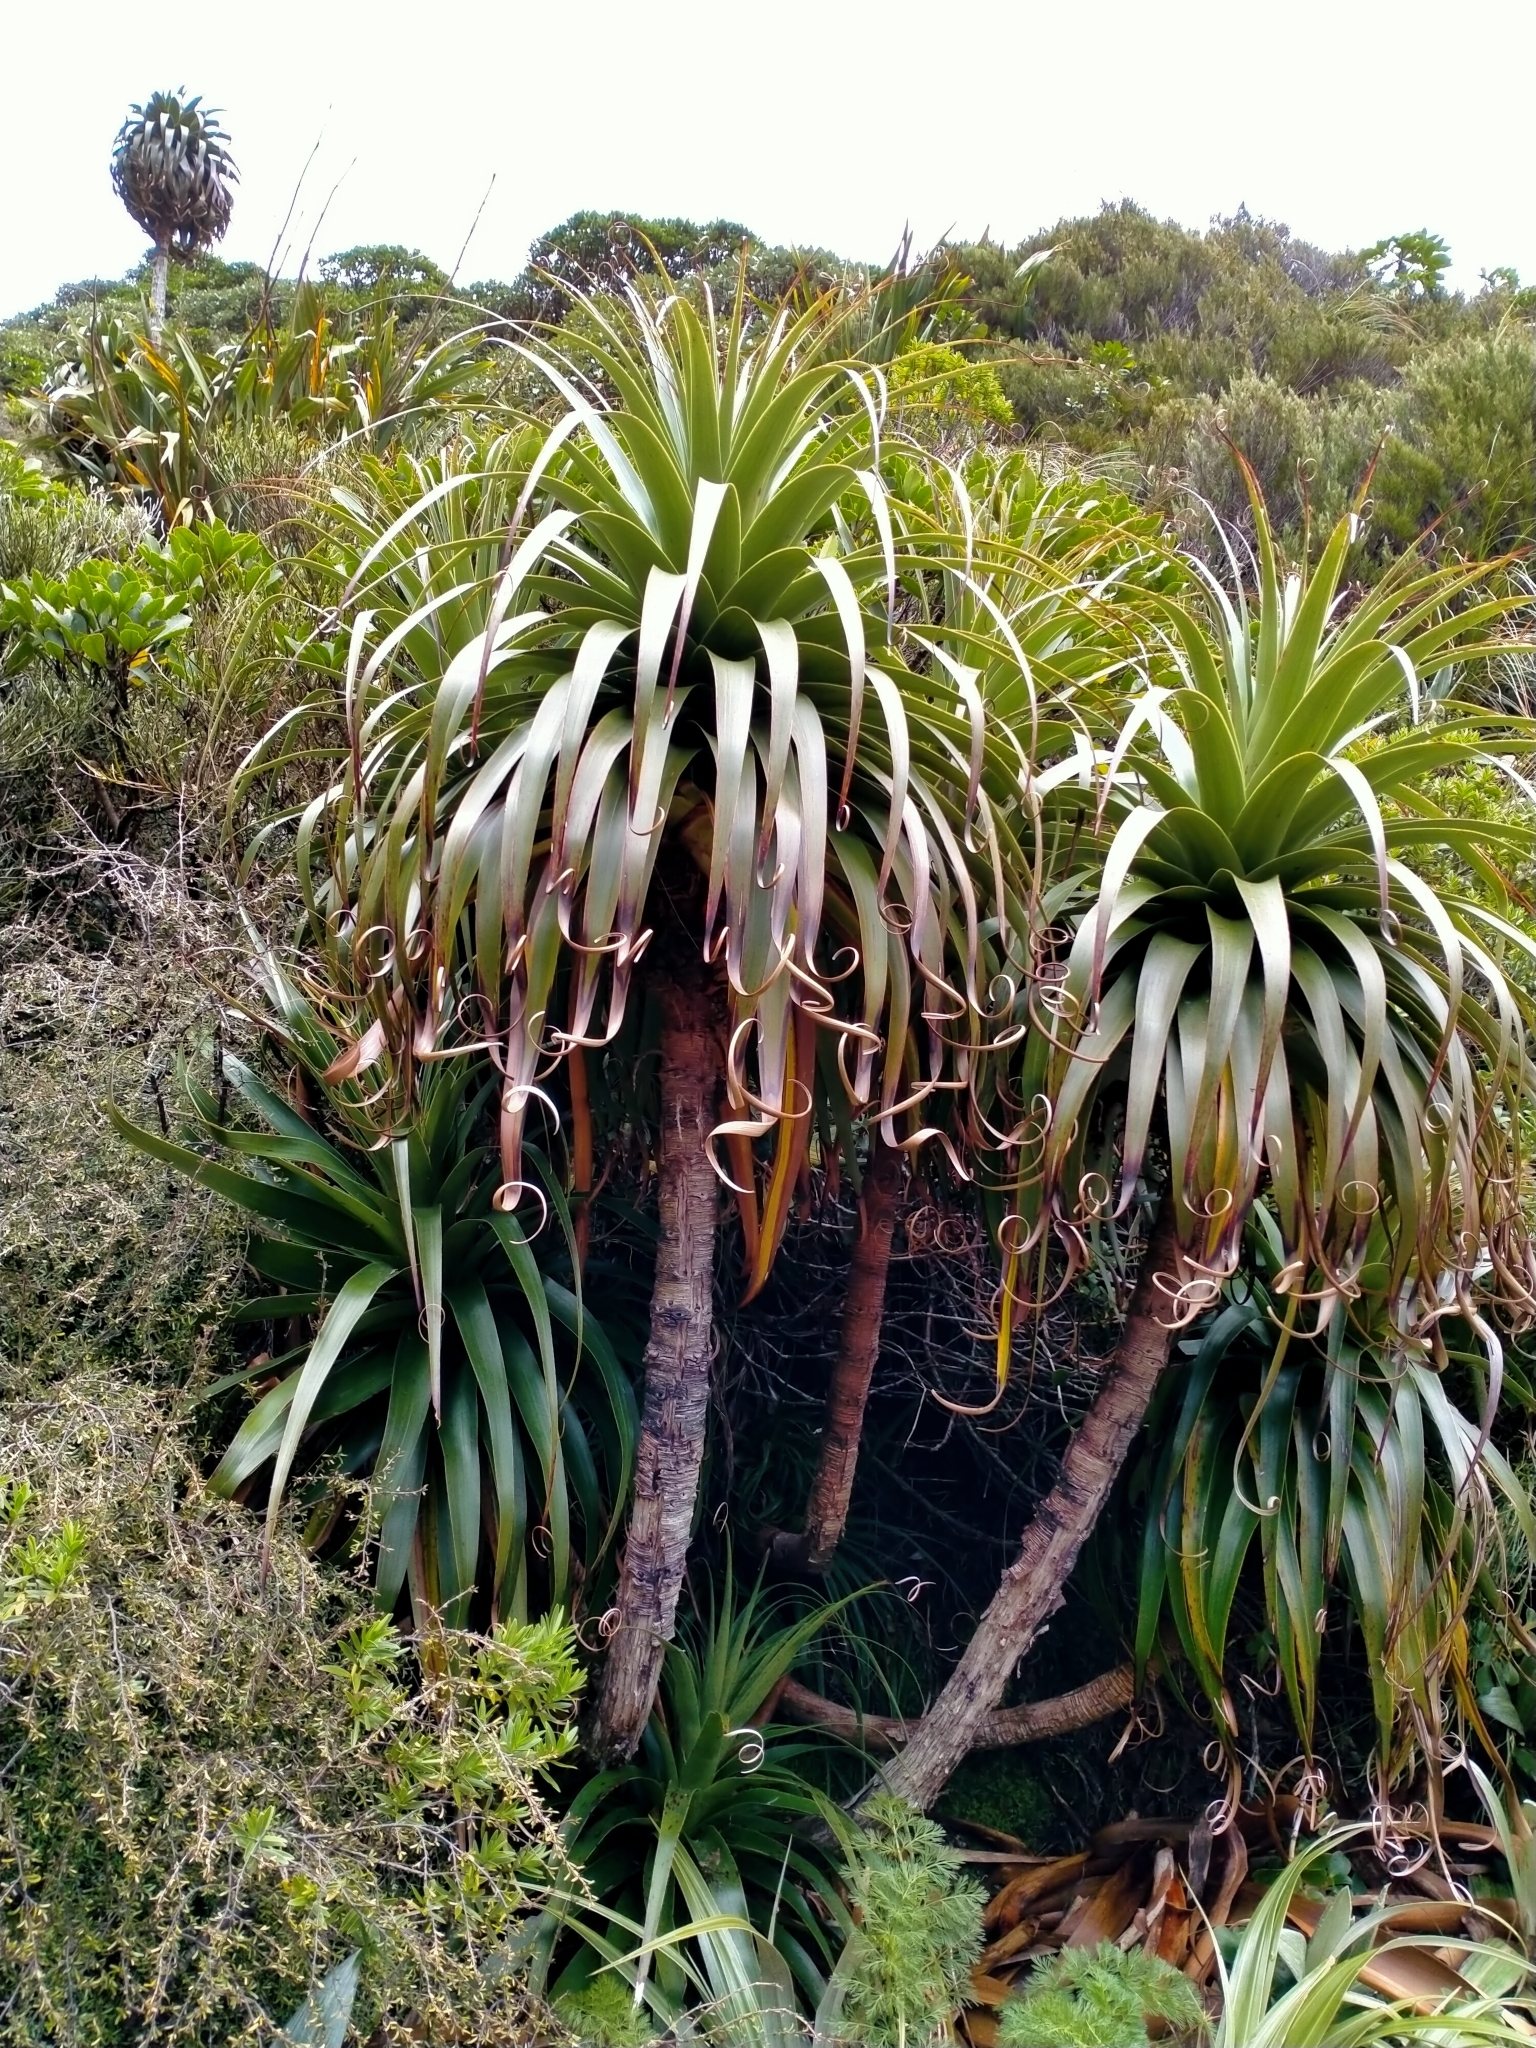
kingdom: Plantae
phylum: Tracheophyta
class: Magnoliopsida
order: Ericales
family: Ericaceae
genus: Dracophyllum
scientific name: Dracophyllum fiordense
